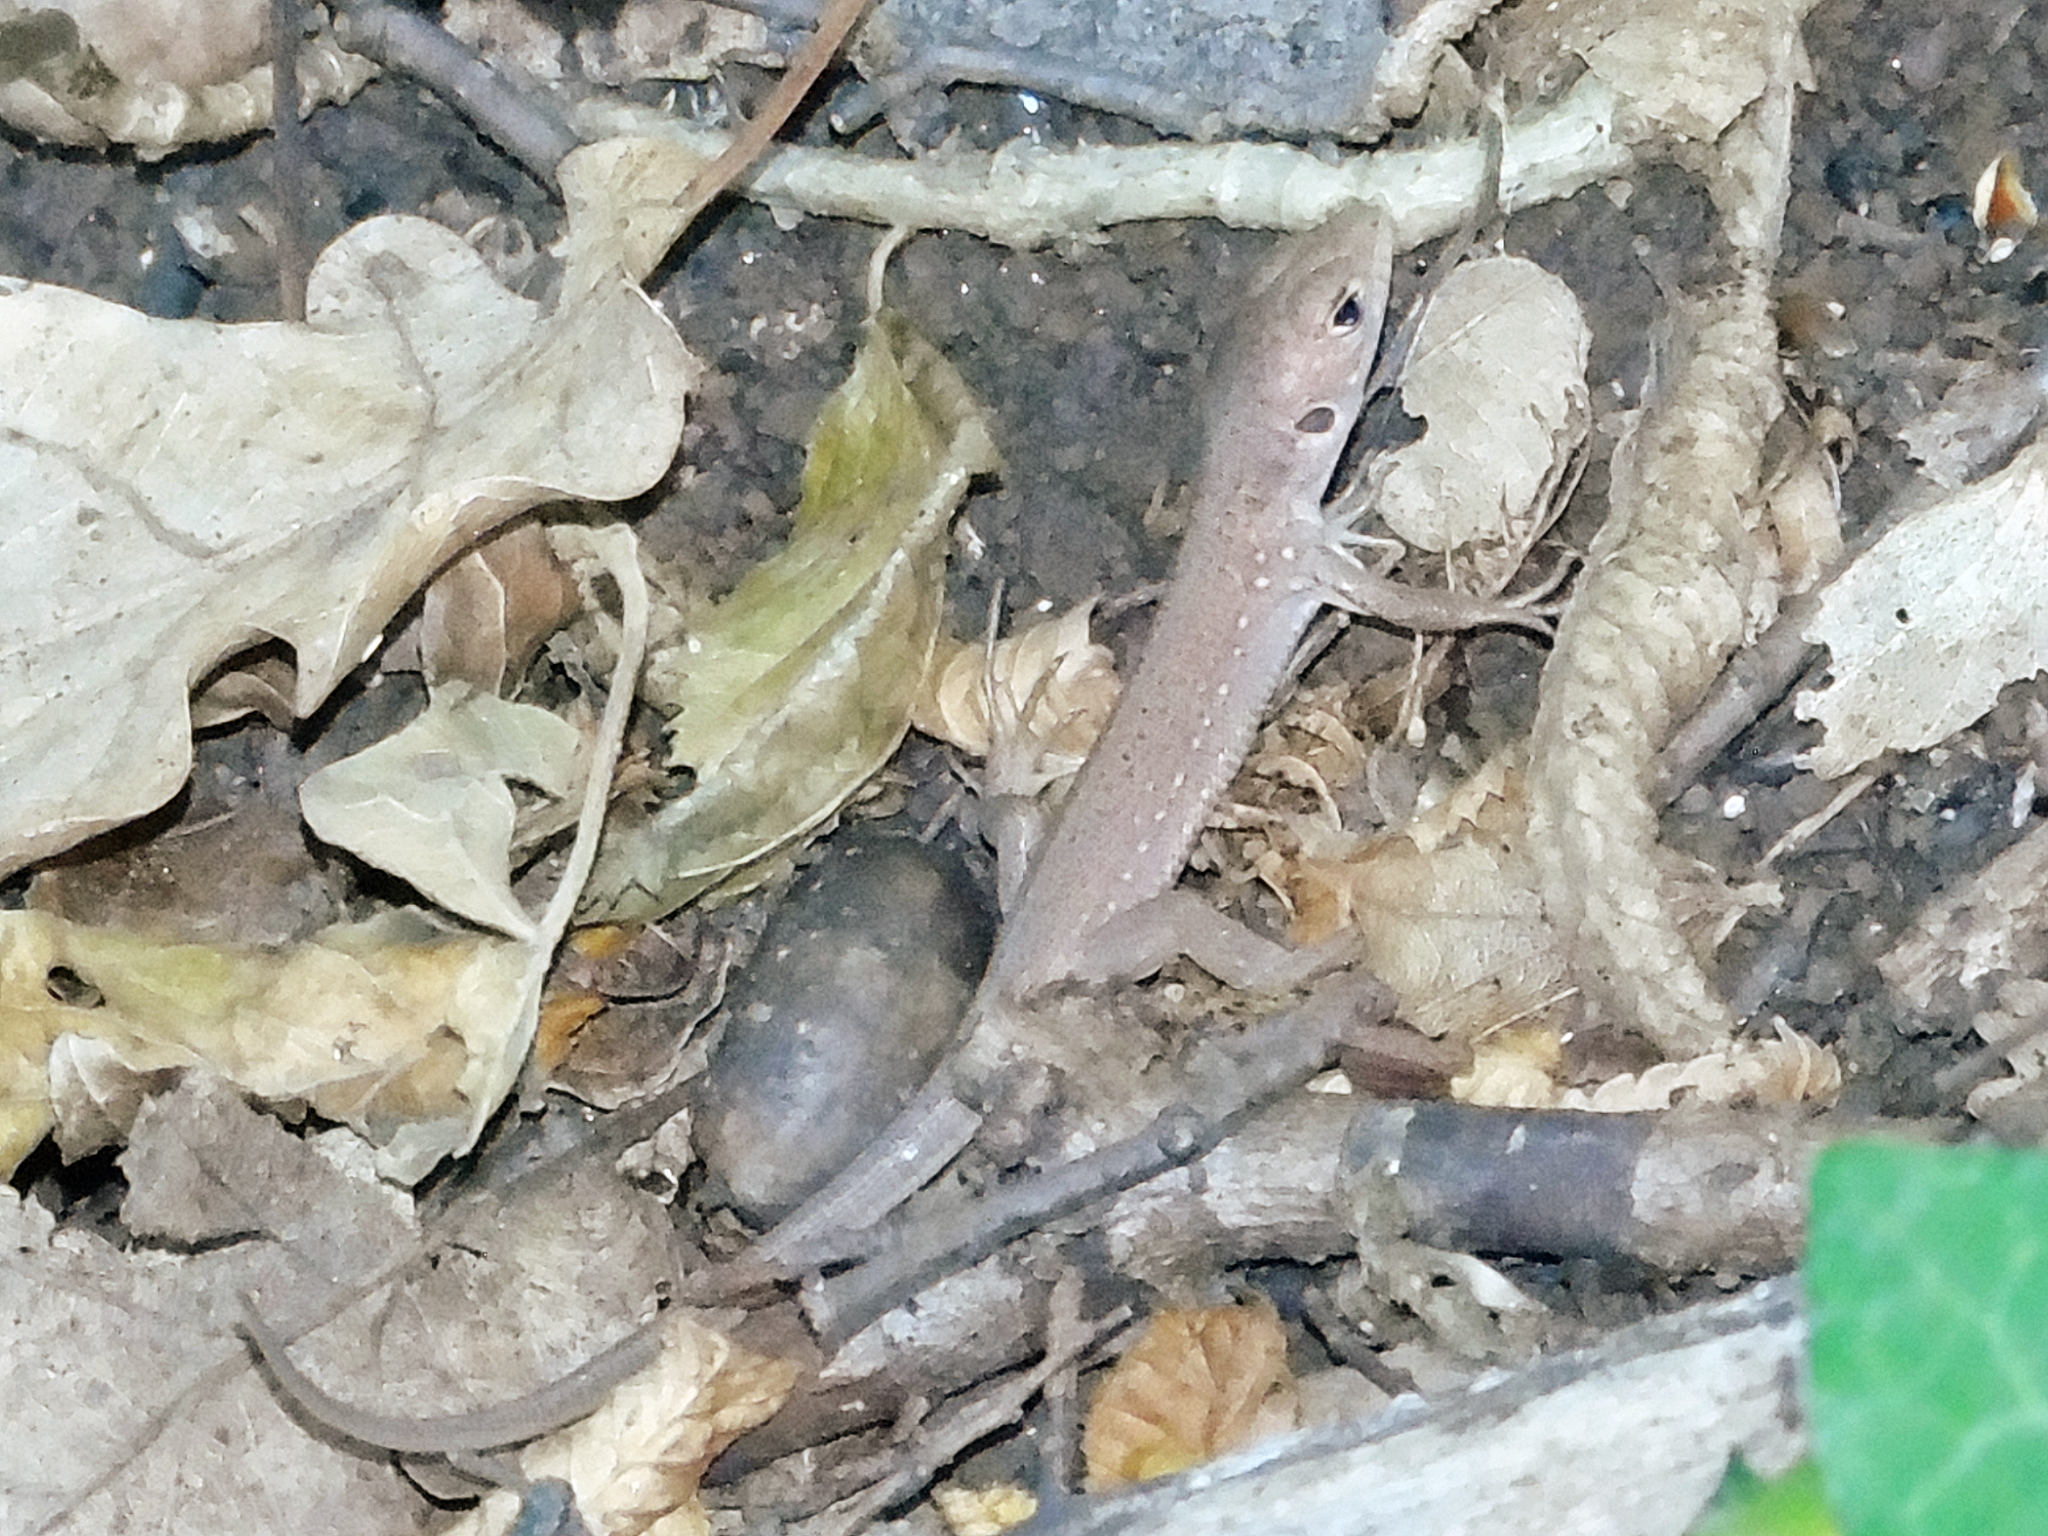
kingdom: Animalia
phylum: Chordata
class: Squamata
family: Lacertidae
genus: Lacerta
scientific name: Lacerta viridis
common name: European green lizard
